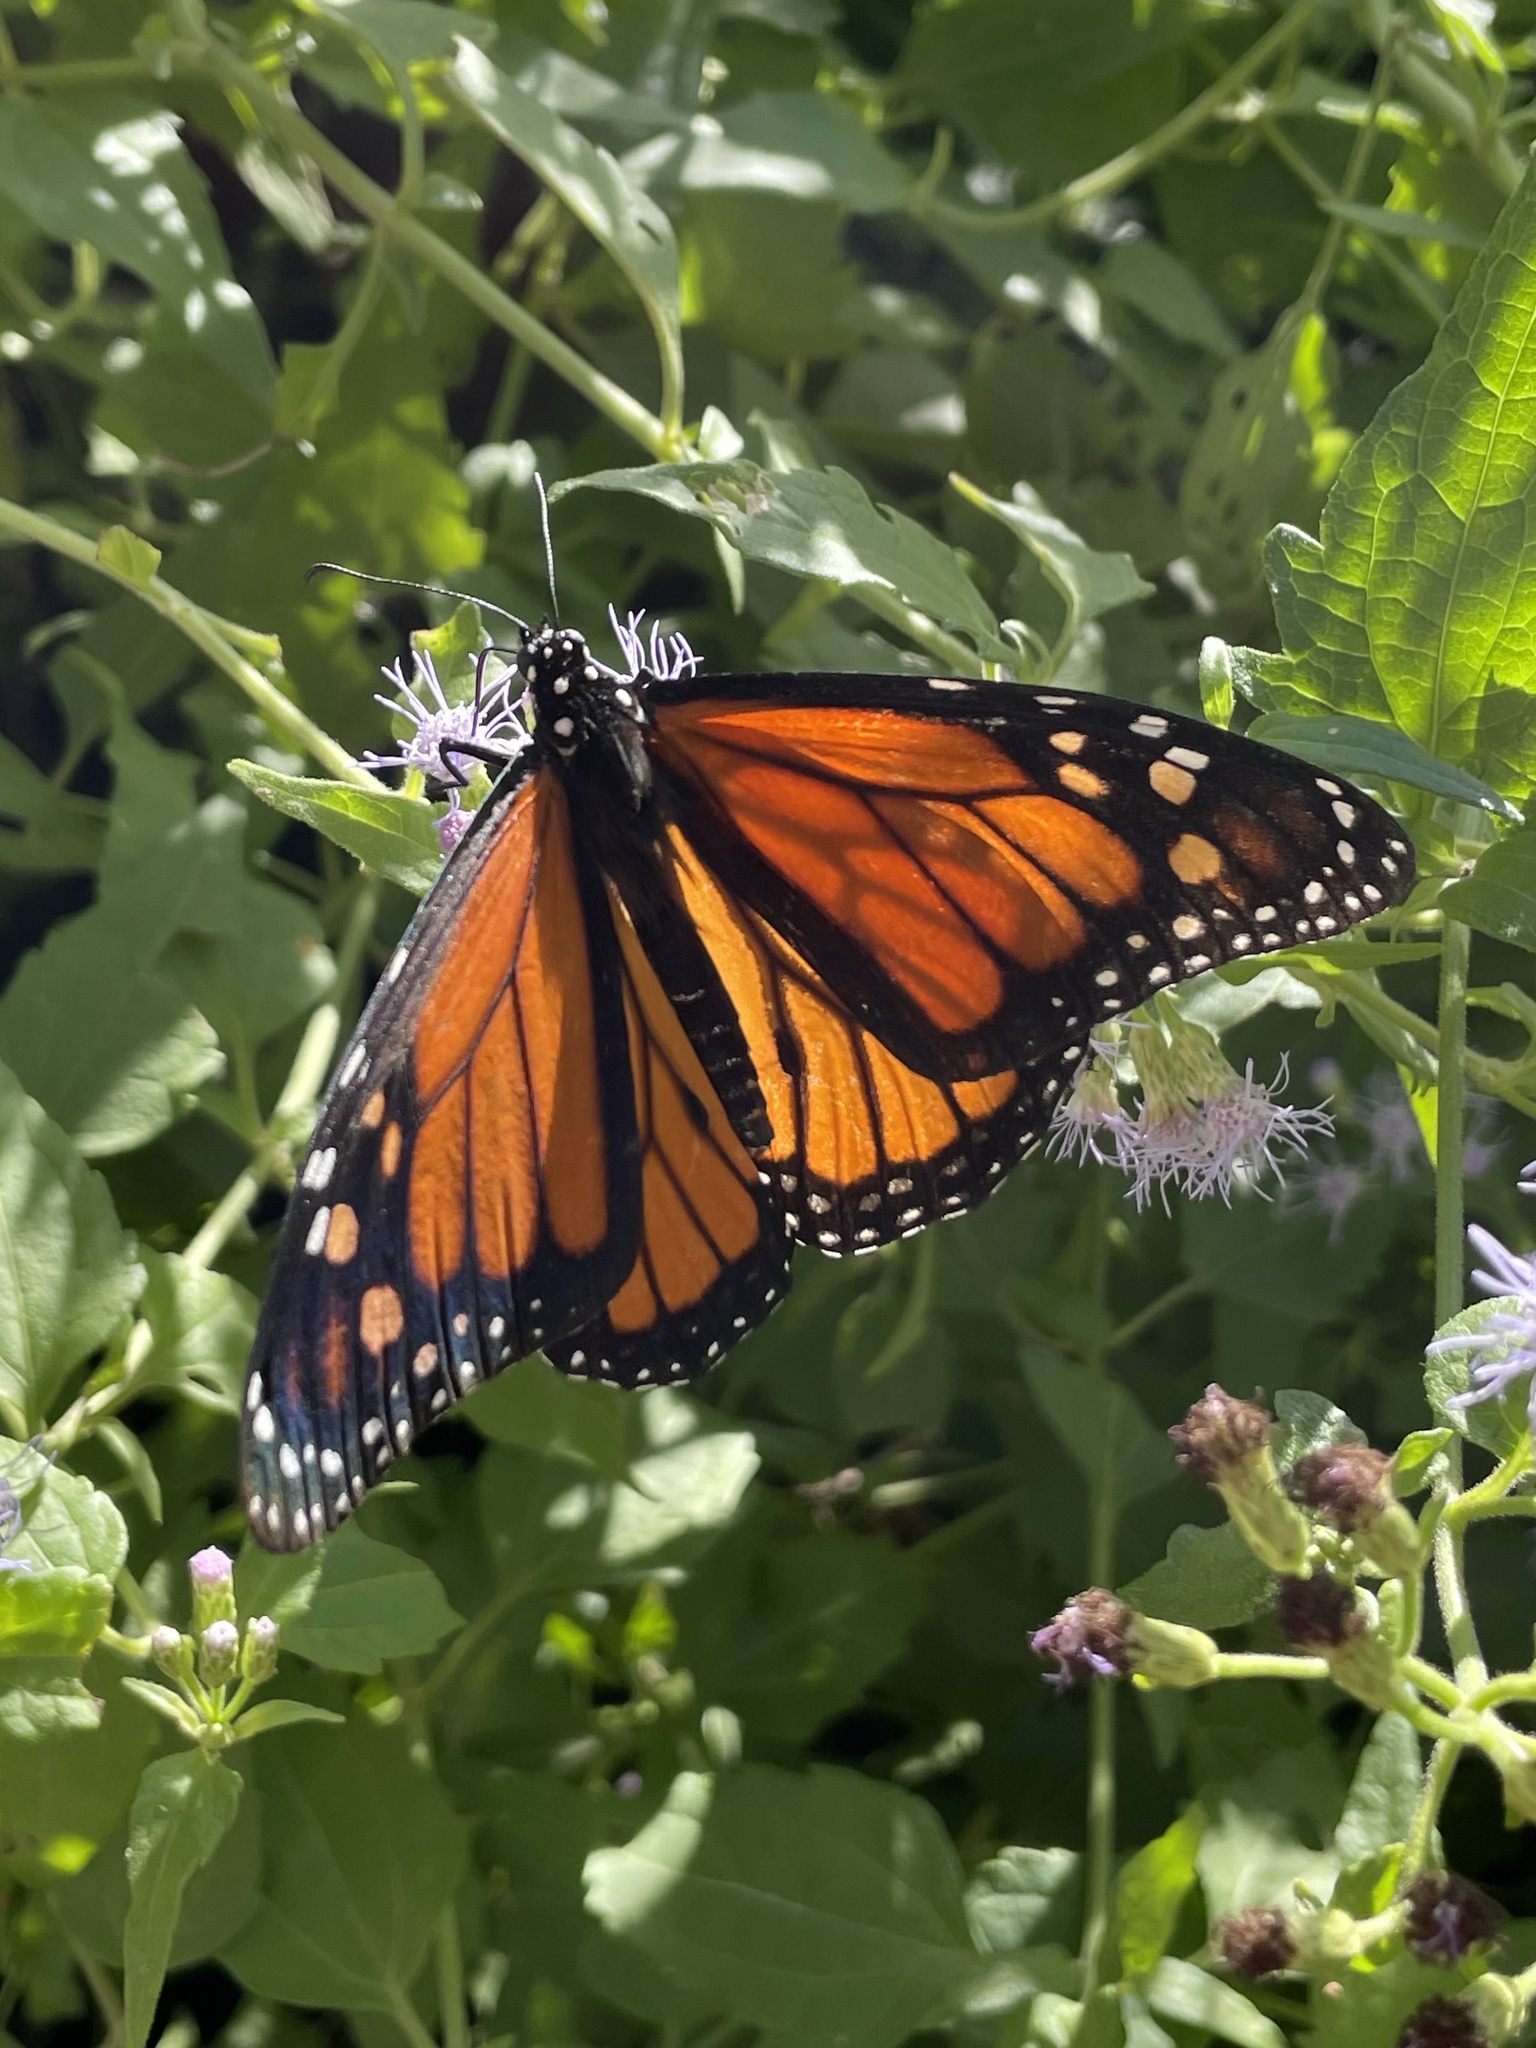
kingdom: Animalia
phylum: Arthropoda
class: Insecta
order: Lepidoptera
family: Nymphalidae
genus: Danaus
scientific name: Danaus plexippus
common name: Monarch
